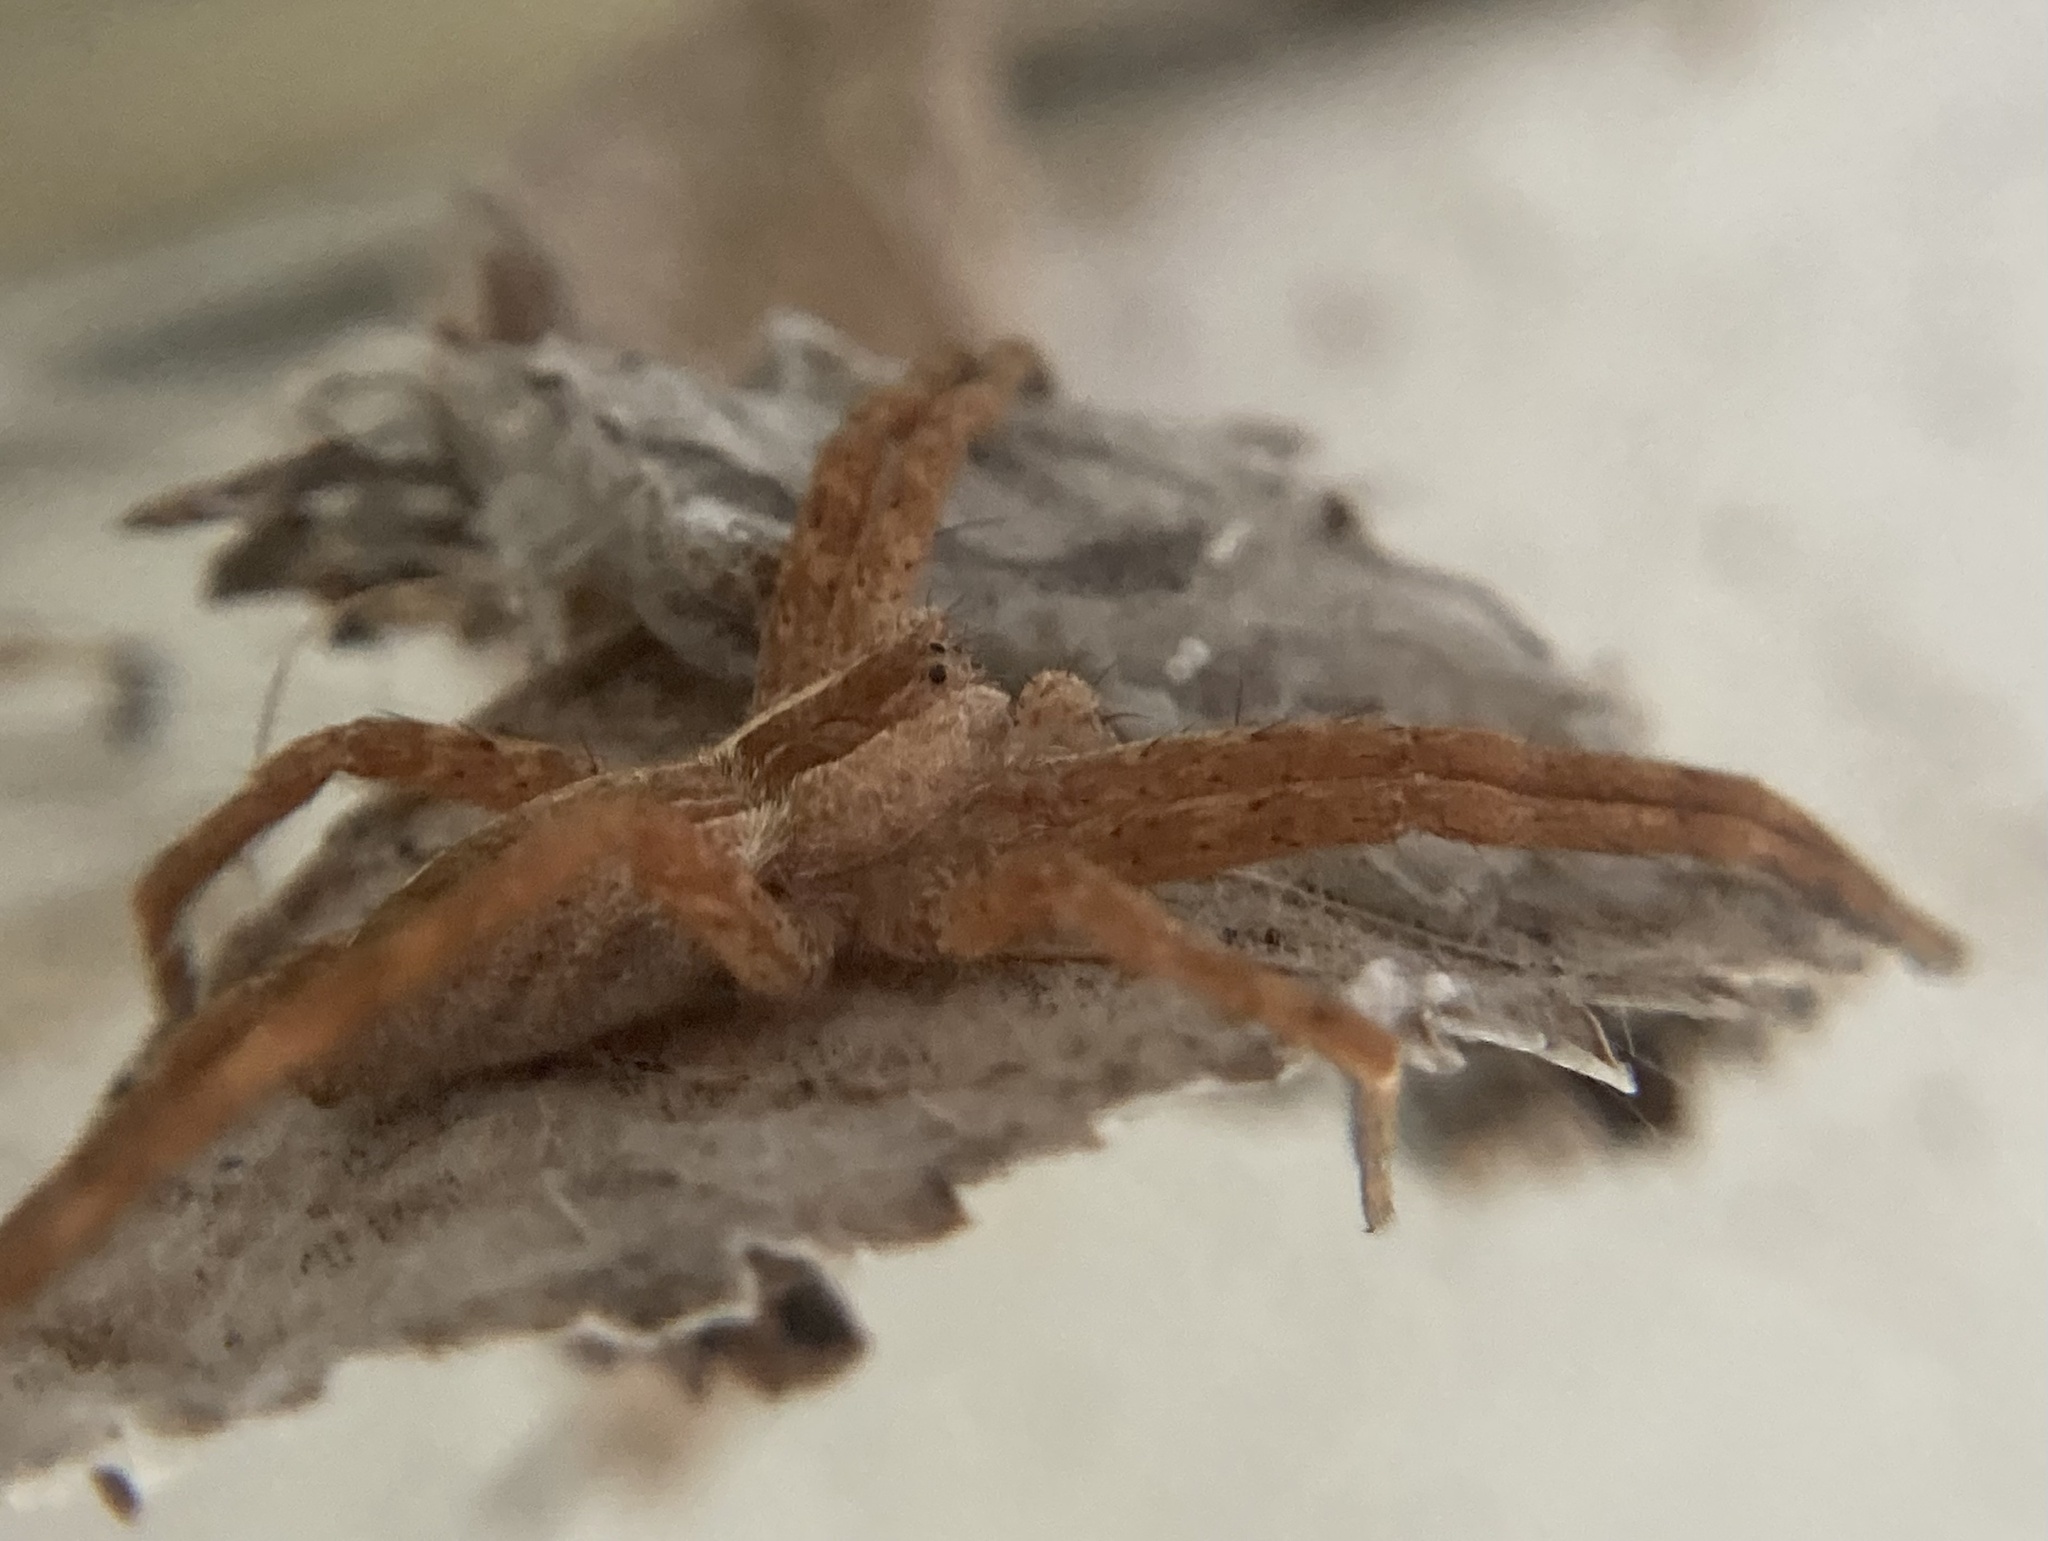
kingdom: Animalia
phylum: Arthropoda
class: Arachnida
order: Araneae
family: Pisauridae
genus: Pisaurina
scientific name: Pisaurina mira
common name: American nursery web spider
